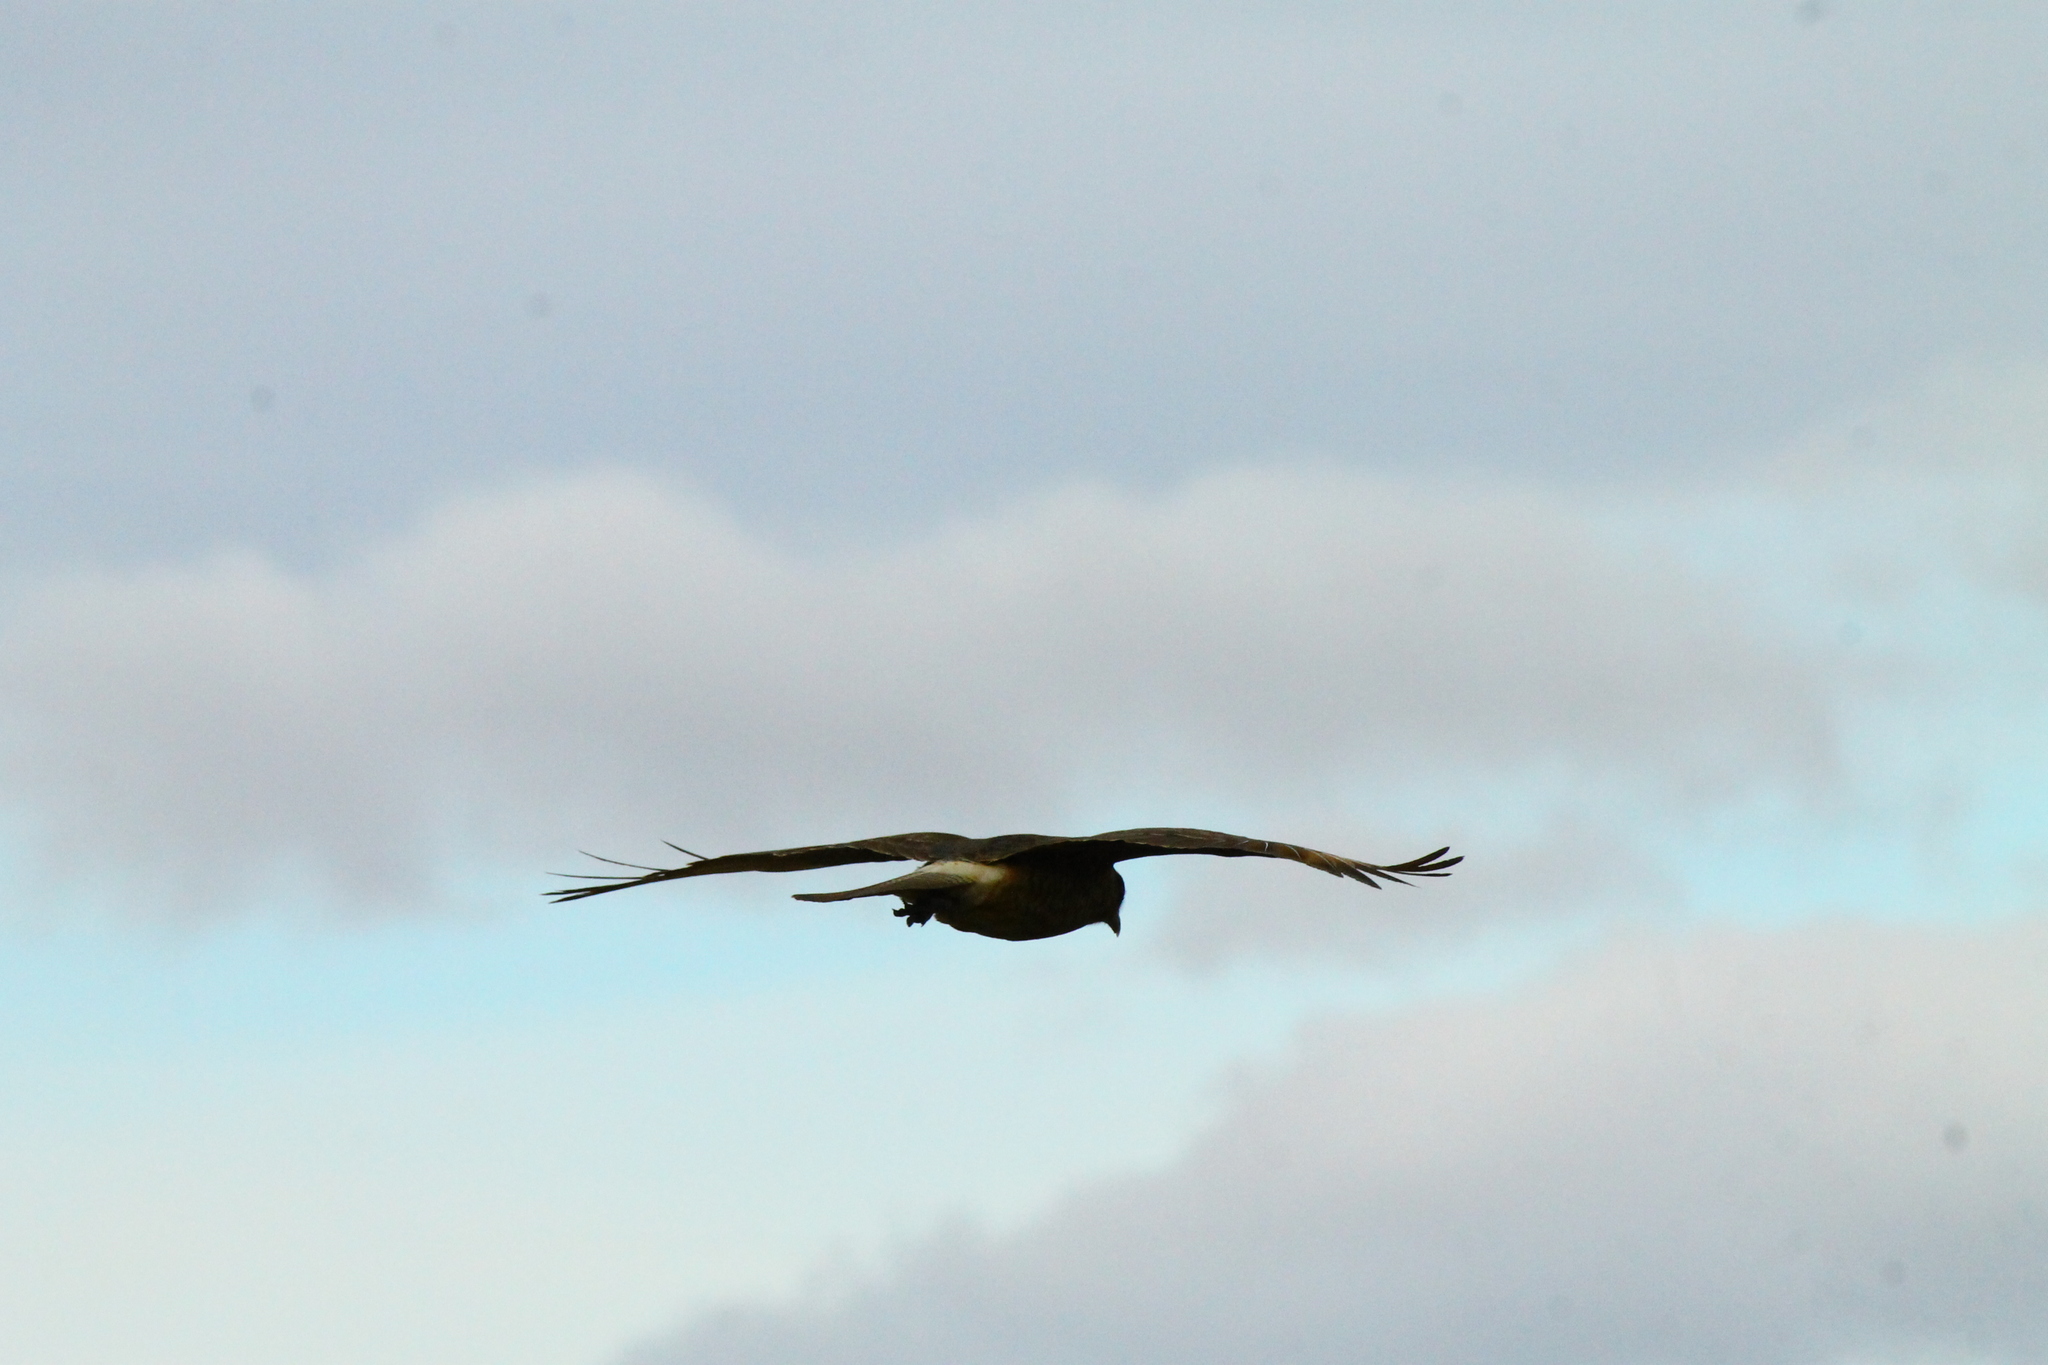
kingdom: Animalia
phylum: Chordata
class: Aves
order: Falconiformes
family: Falconidae
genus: Daptrius
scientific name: Daptrius
